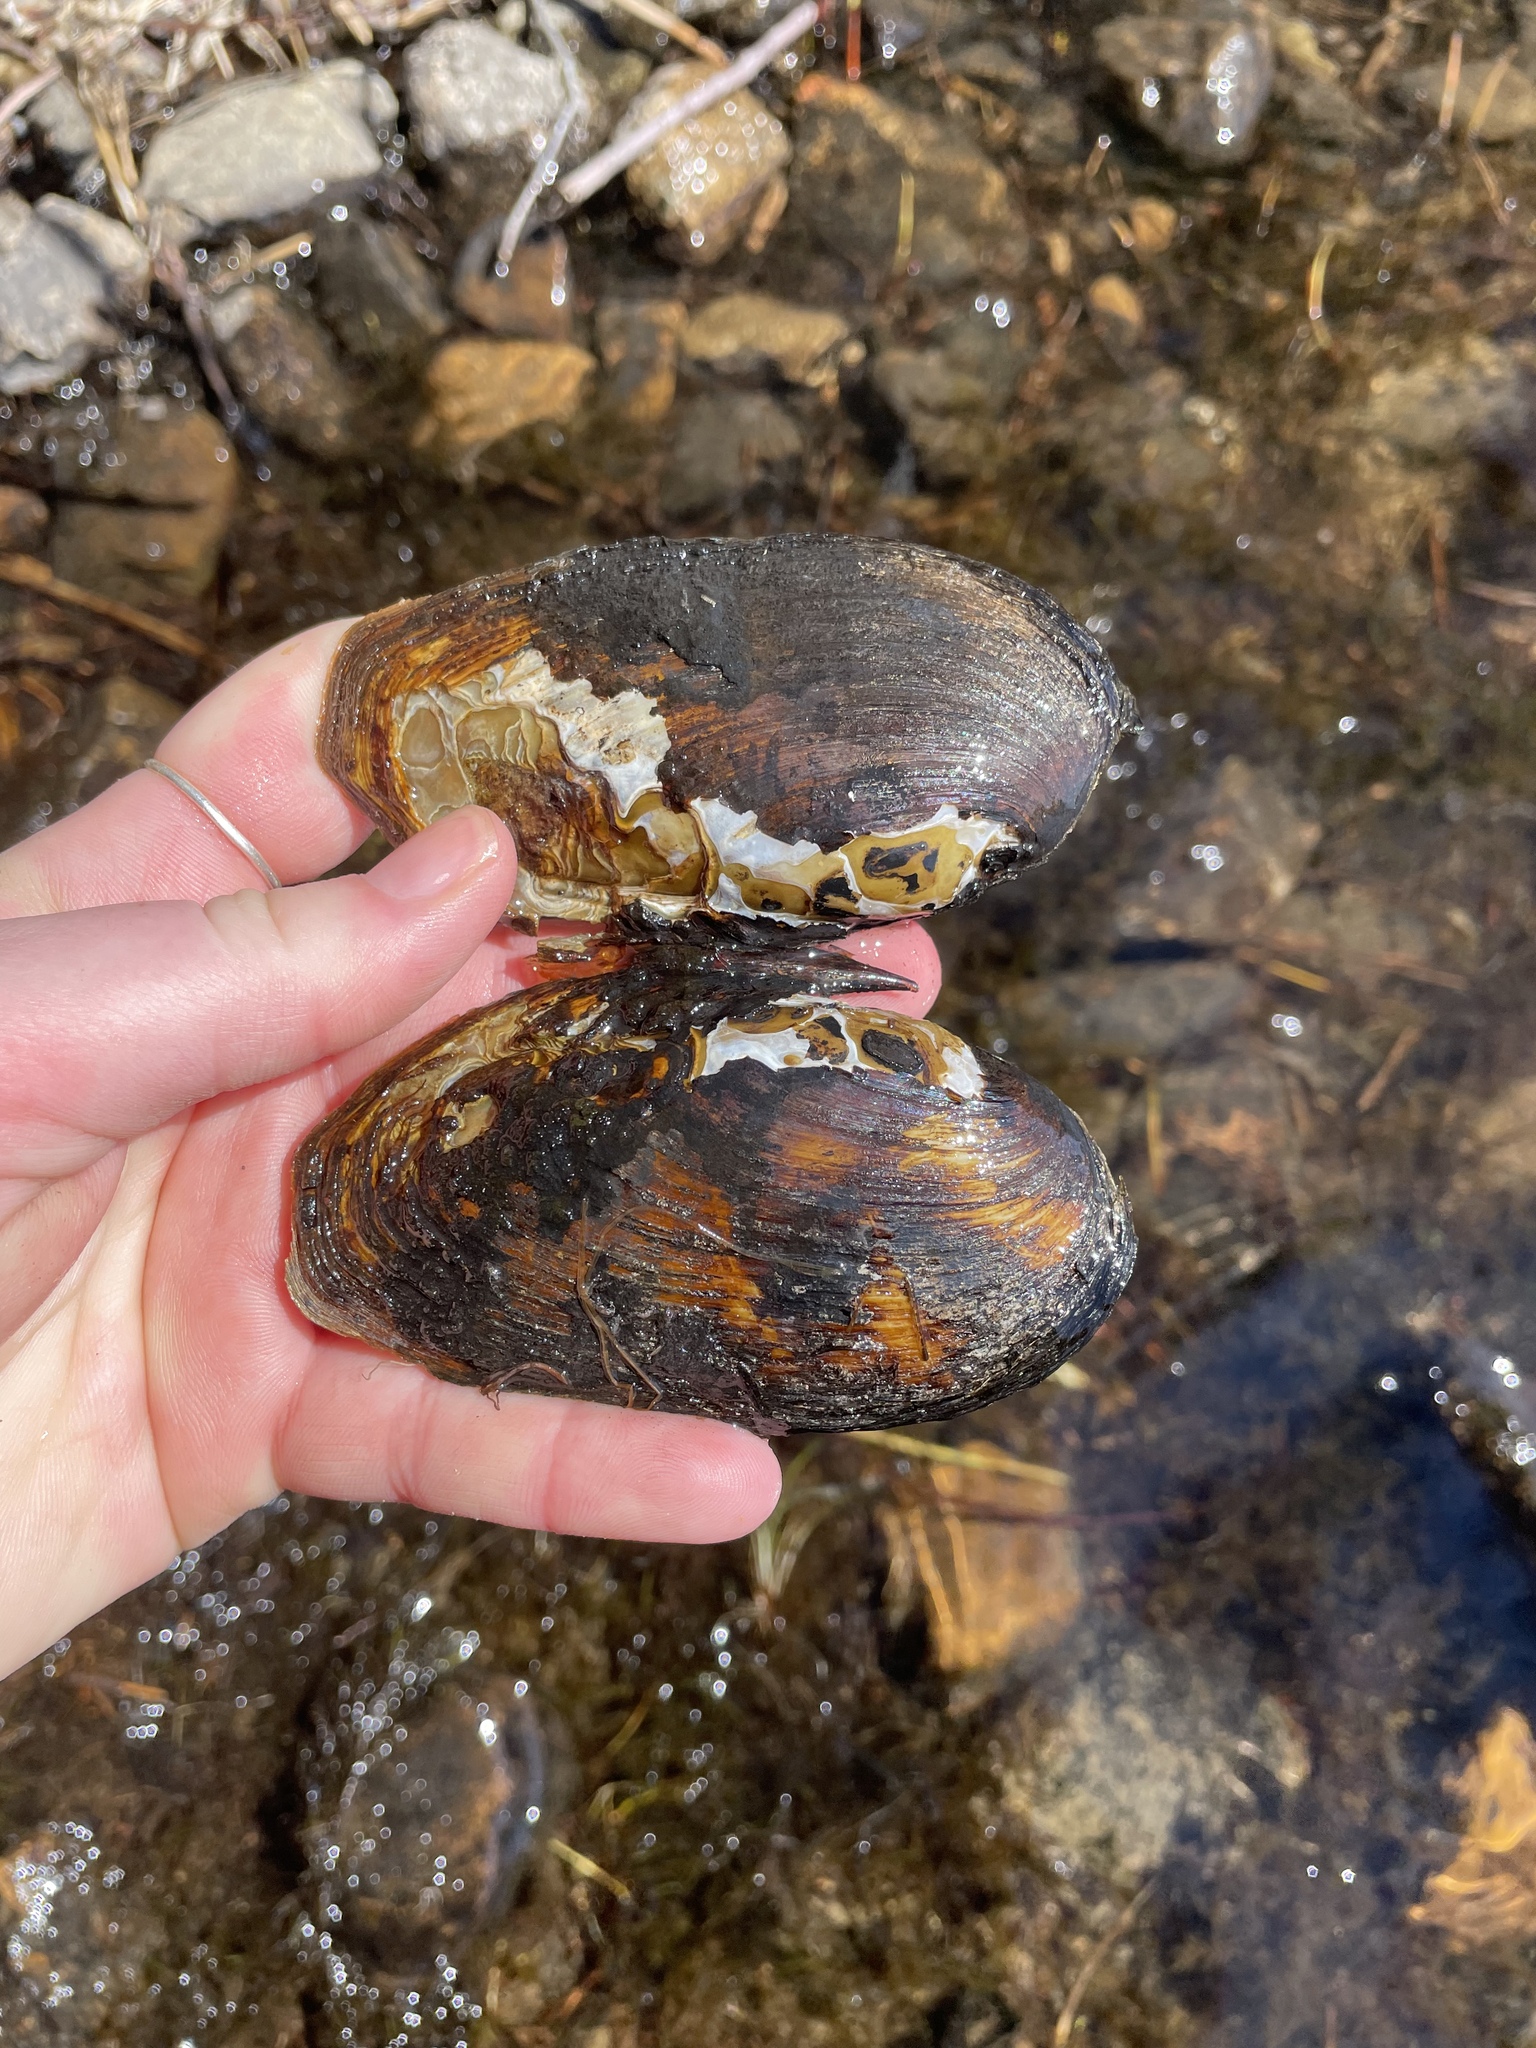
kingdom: Animalia
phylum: Mollusca
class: Bivalvia
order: Unionida
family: Unionidae
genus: Elliptio
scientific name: Elliptio complanata
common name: Eastern elliptio
